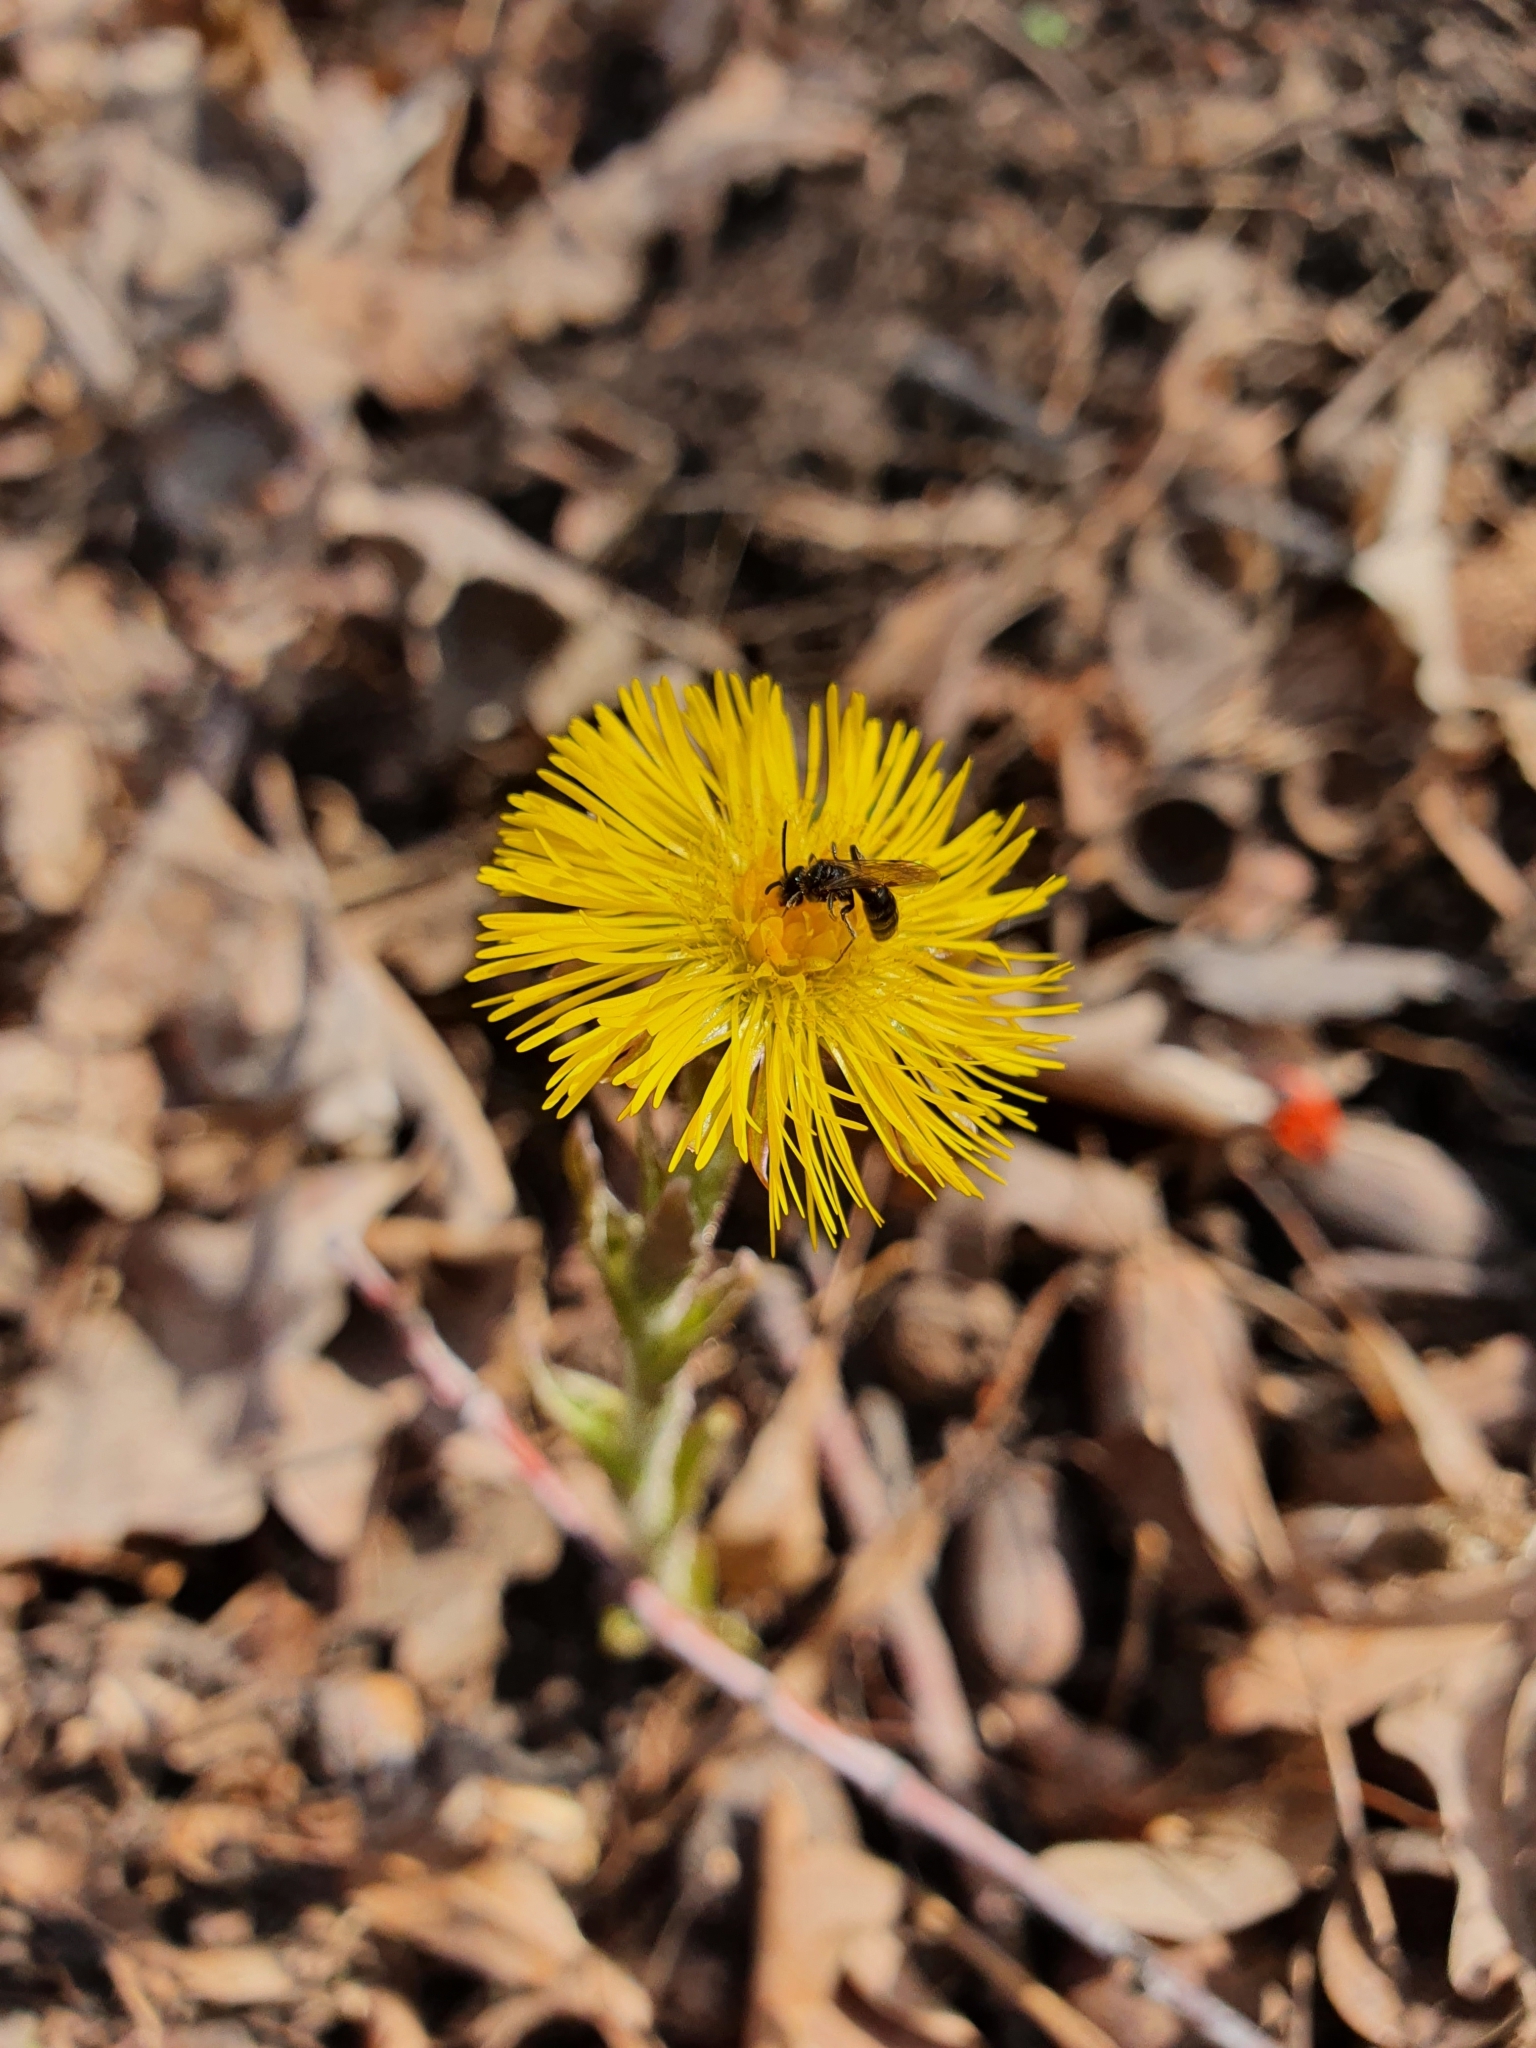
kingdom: Plantae
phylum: Tracheophyta
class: Magnoliopsida
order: Asterales
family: Asteraceae
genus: Tussilago
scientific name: Tussilago farfara
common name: Coltsfoot
